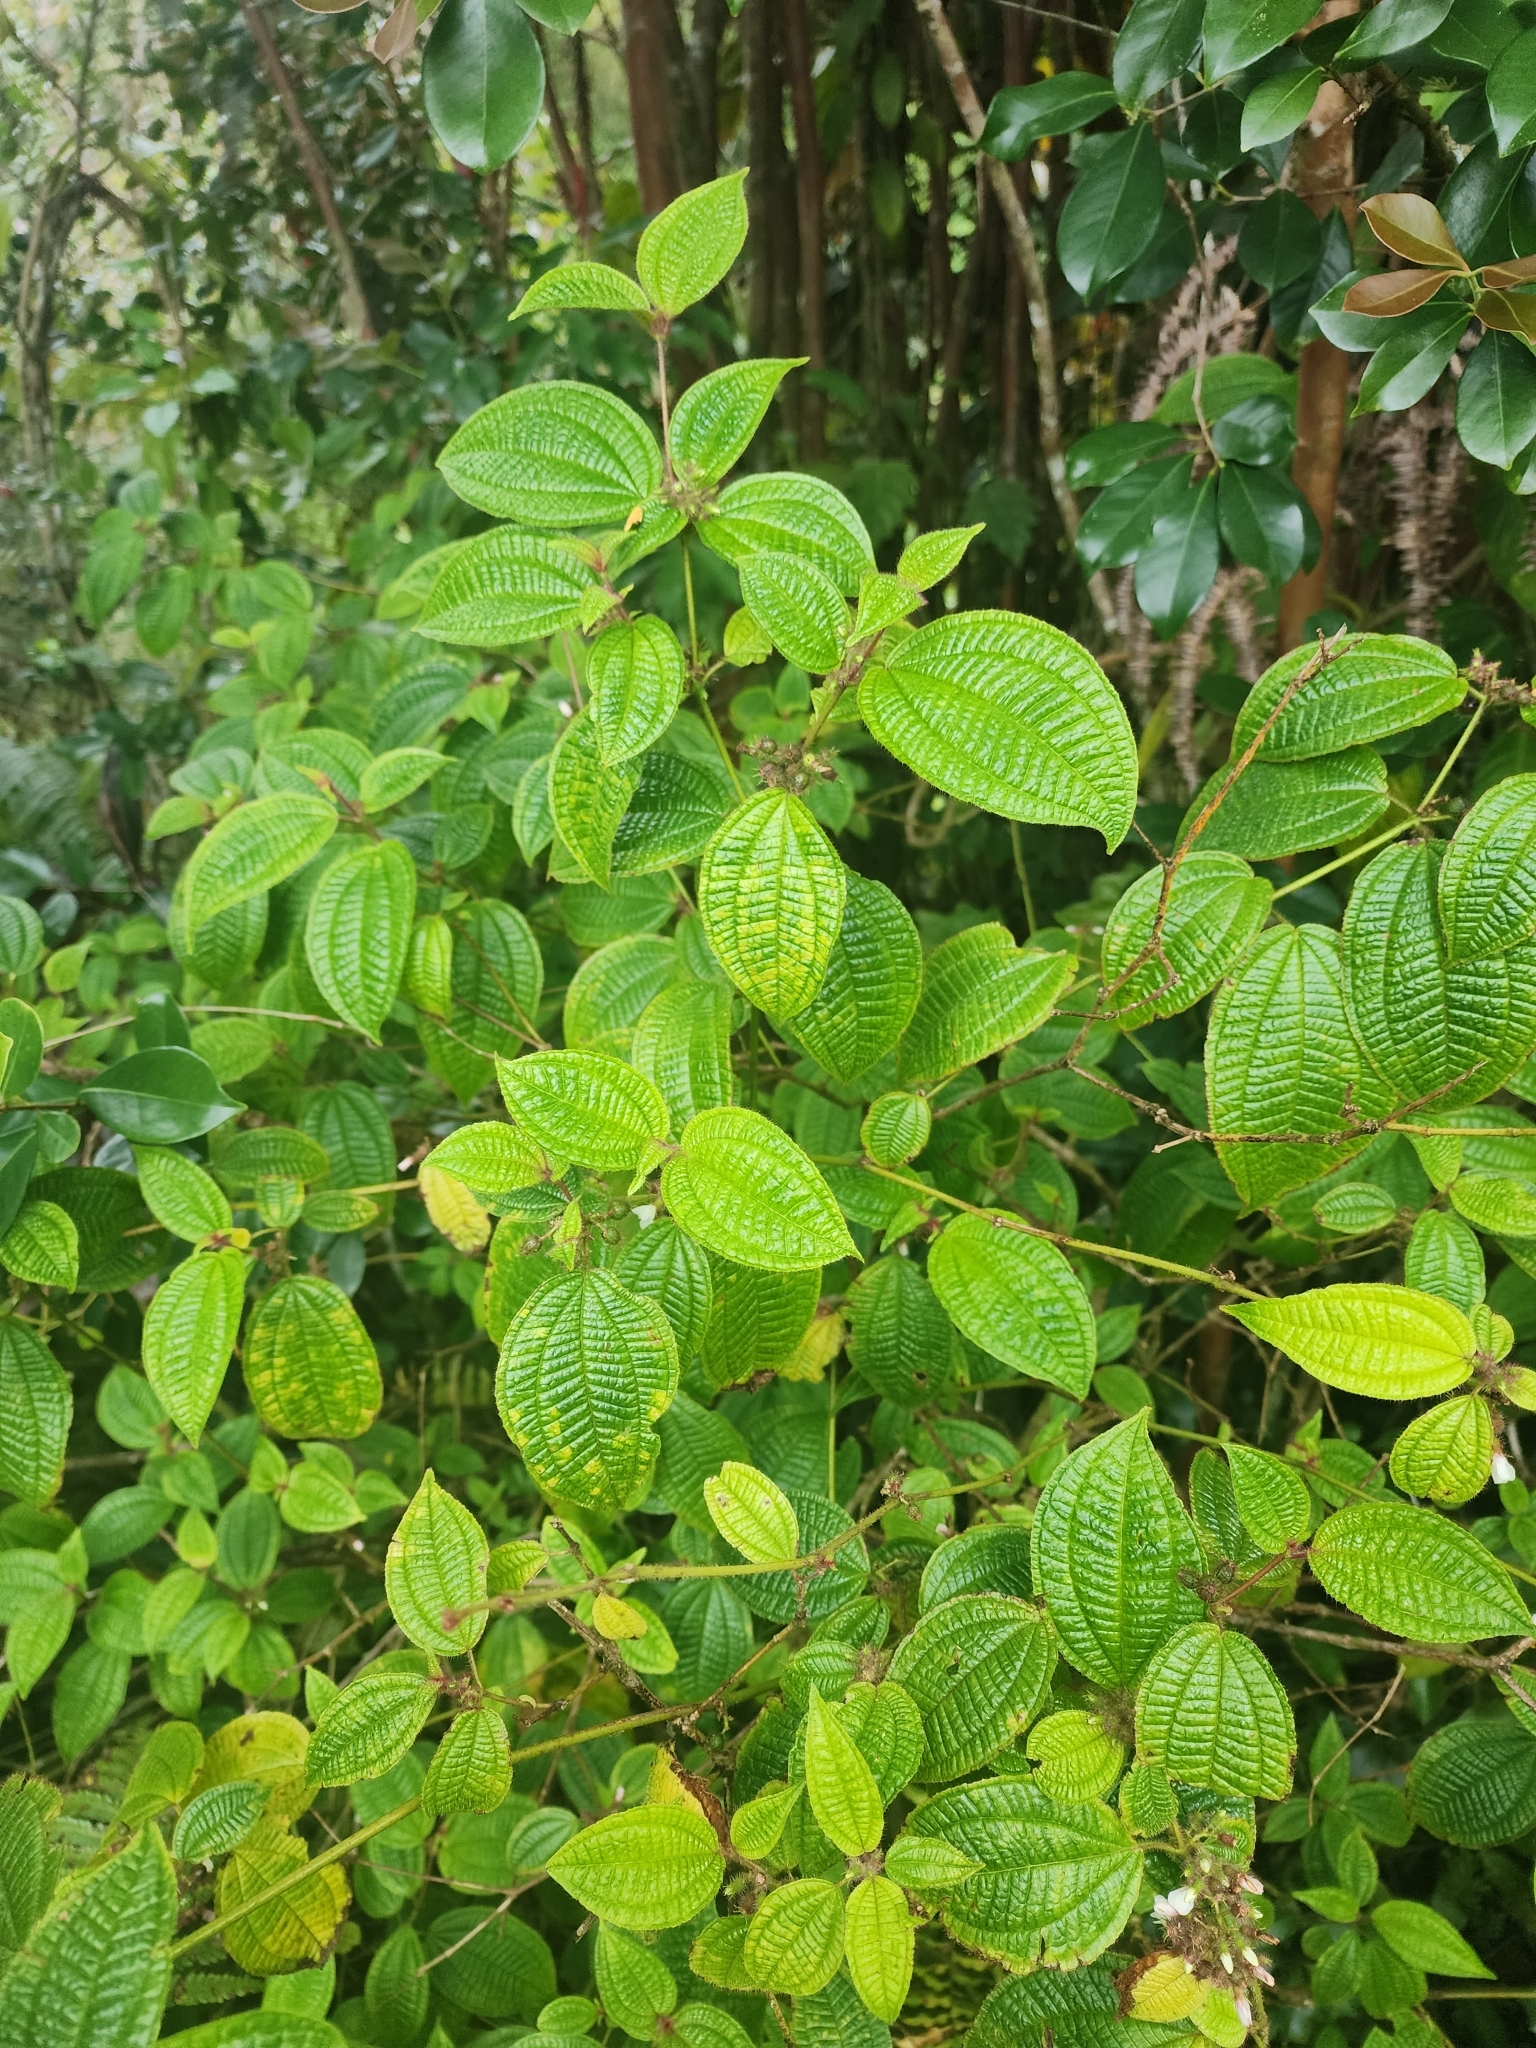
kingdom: Plantae
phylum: Tracheophyta
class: Magnoliopsida
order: Myrtales
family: Melastomataceae
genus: Miconia
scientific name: Miconia crenata
